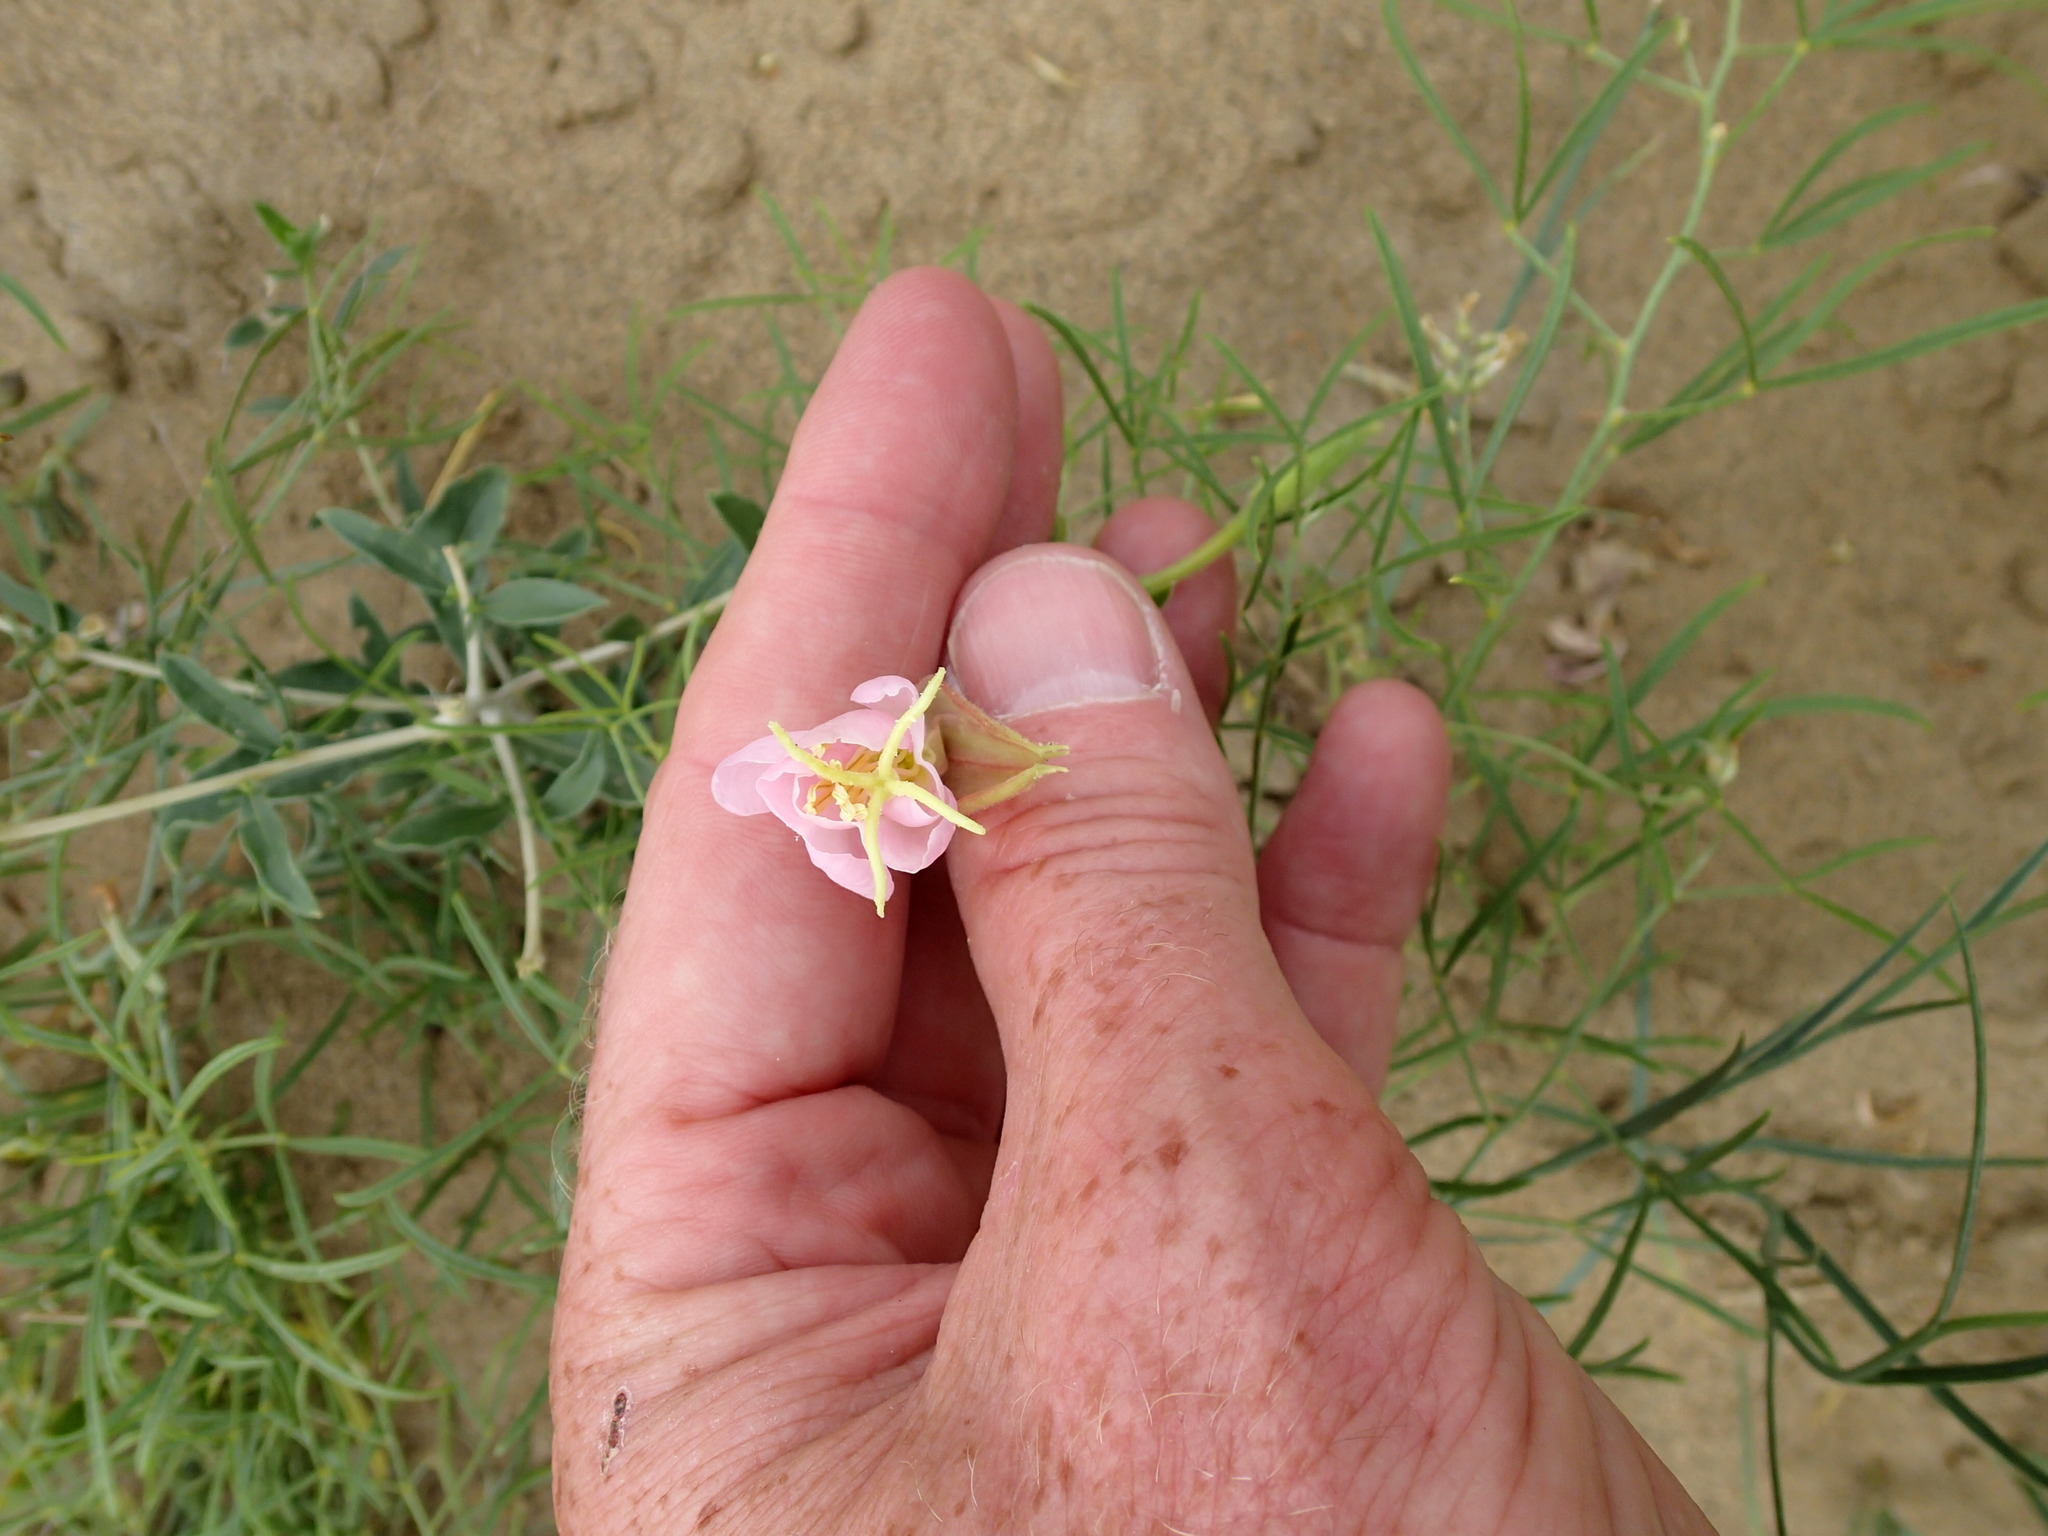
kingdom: Plantae
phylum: Tracheophyta
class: Magnoliopsida
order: Myrtales
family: Onagraceae
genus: Oenothera
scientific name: Oenothera nuttallii
